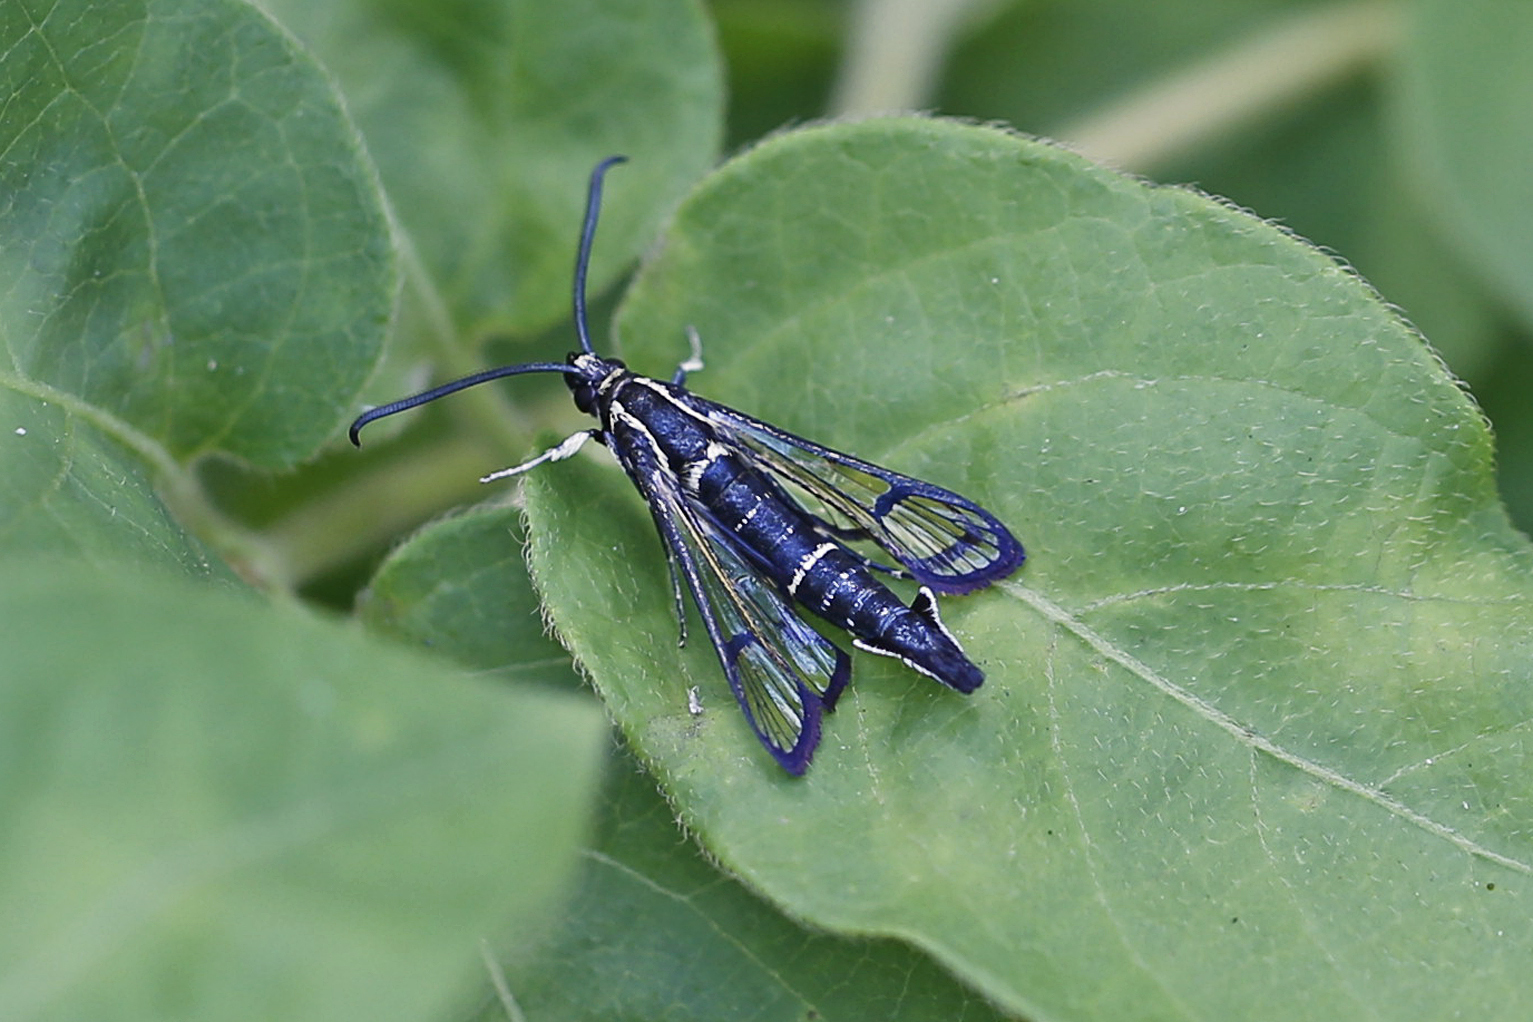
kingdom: Animalia
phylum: Arthropoda
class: Insecta
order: Lepidoptera
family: Sesiidae
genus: Synanthedon
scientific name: Synanthedon exitiosa
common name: Peachtree borer moth
